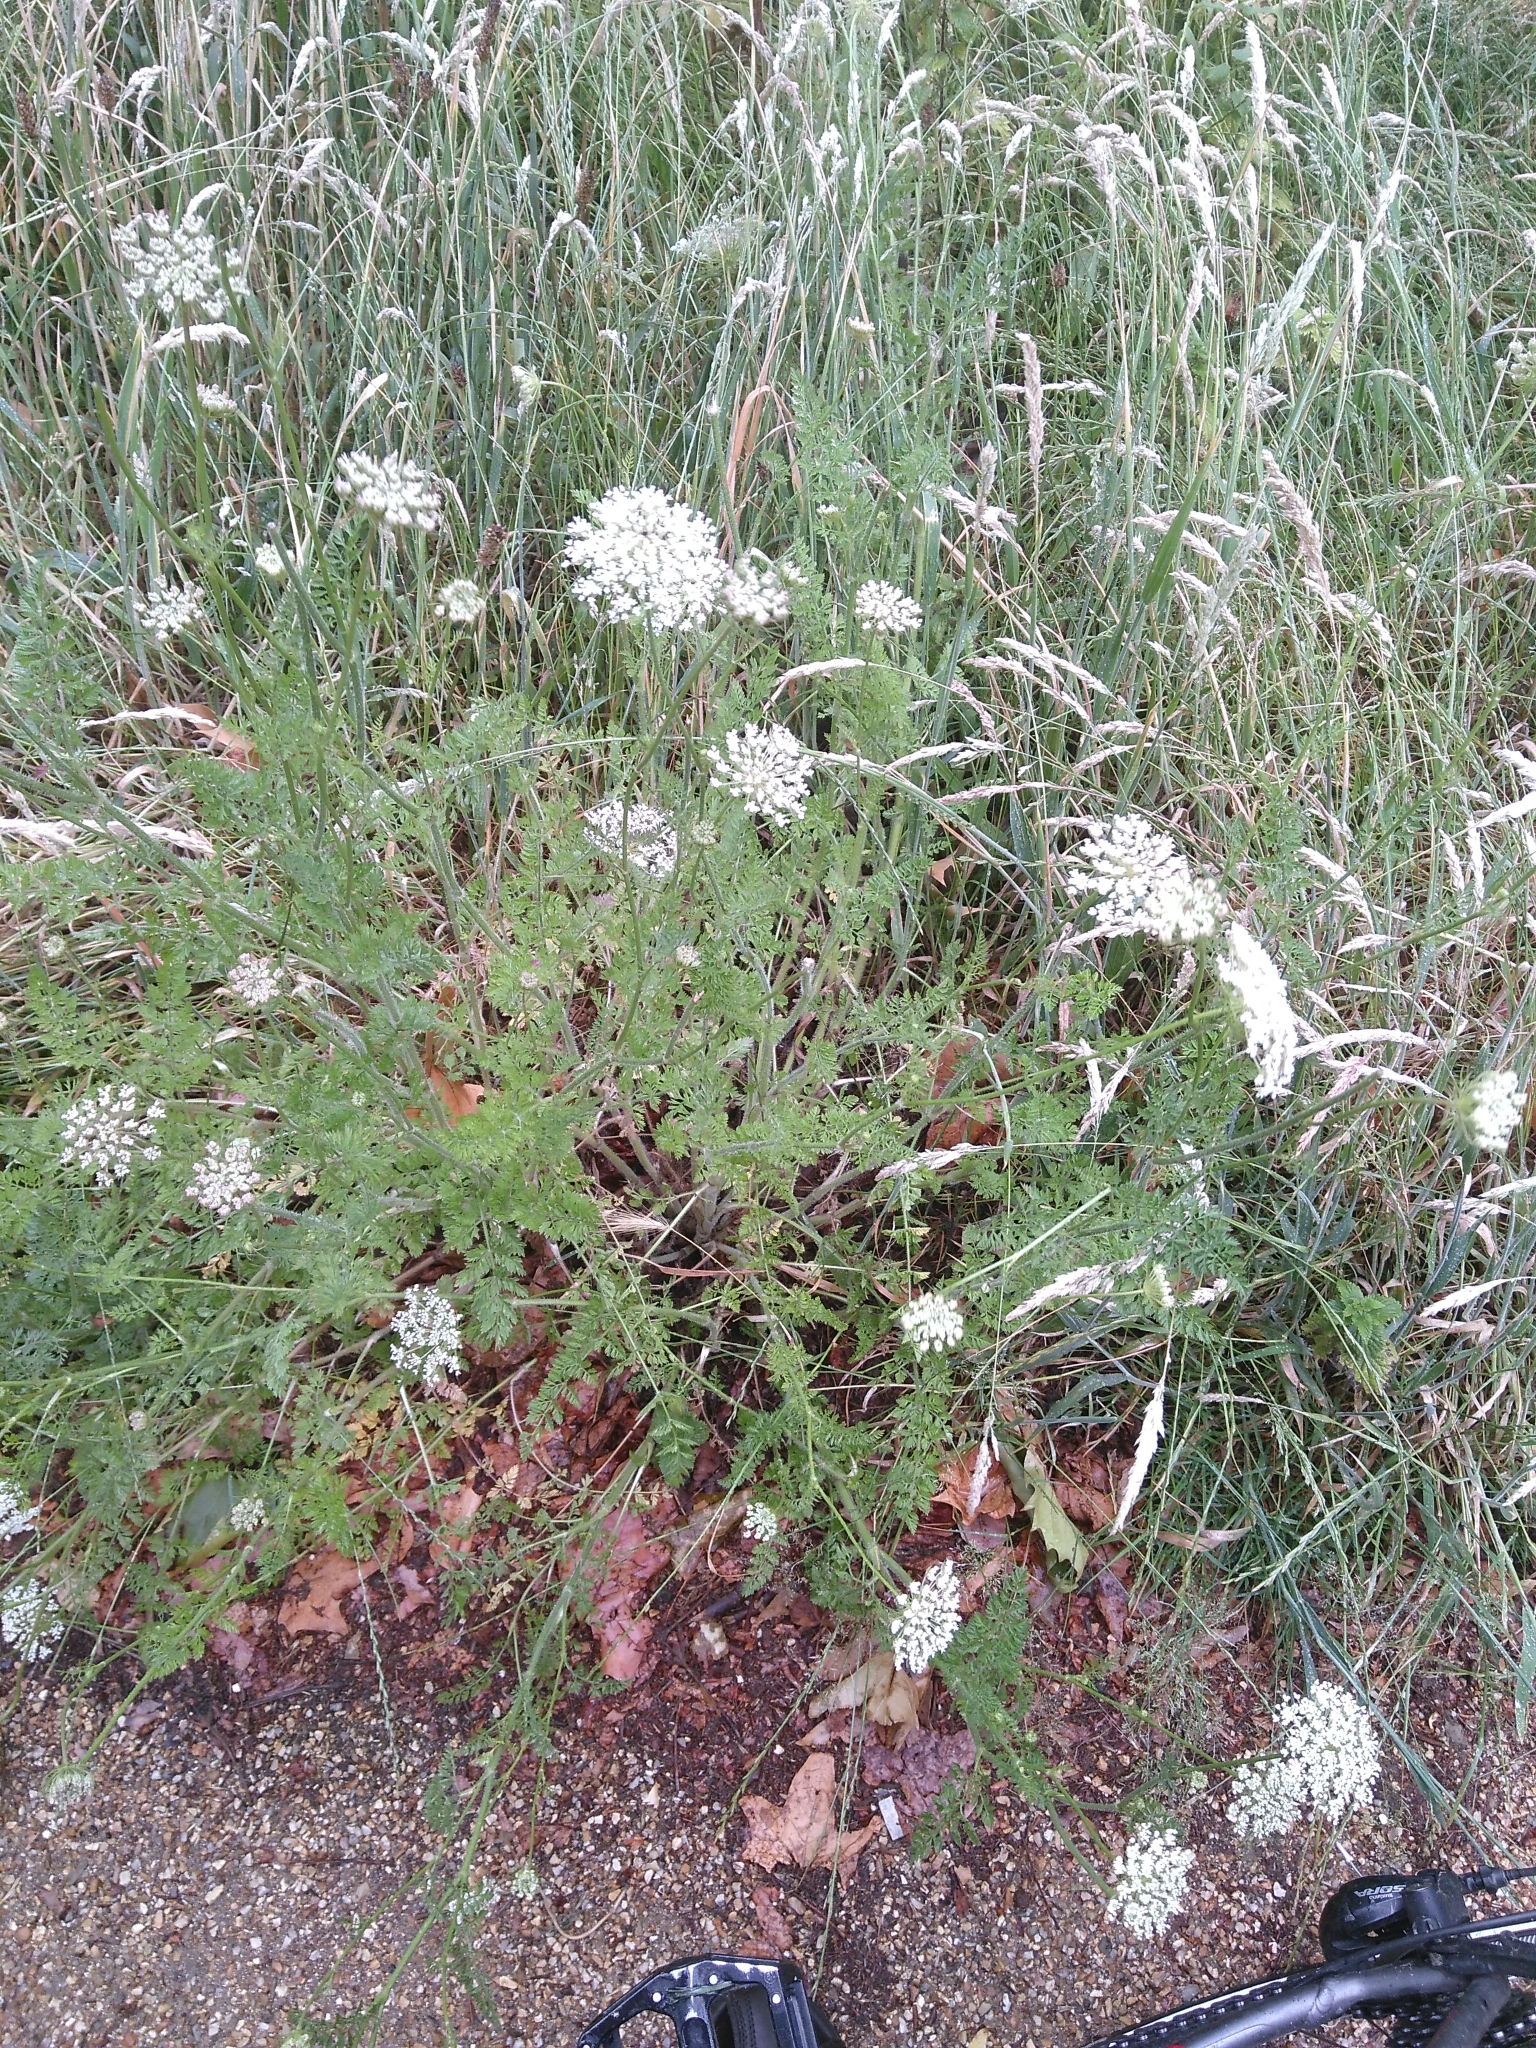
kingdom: Plantae
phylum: Tracheophyta
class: Magnoliopsida
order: Apiales
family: Apiaceae
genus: Daucus
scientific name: Daucus carota
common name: Wild carrot
